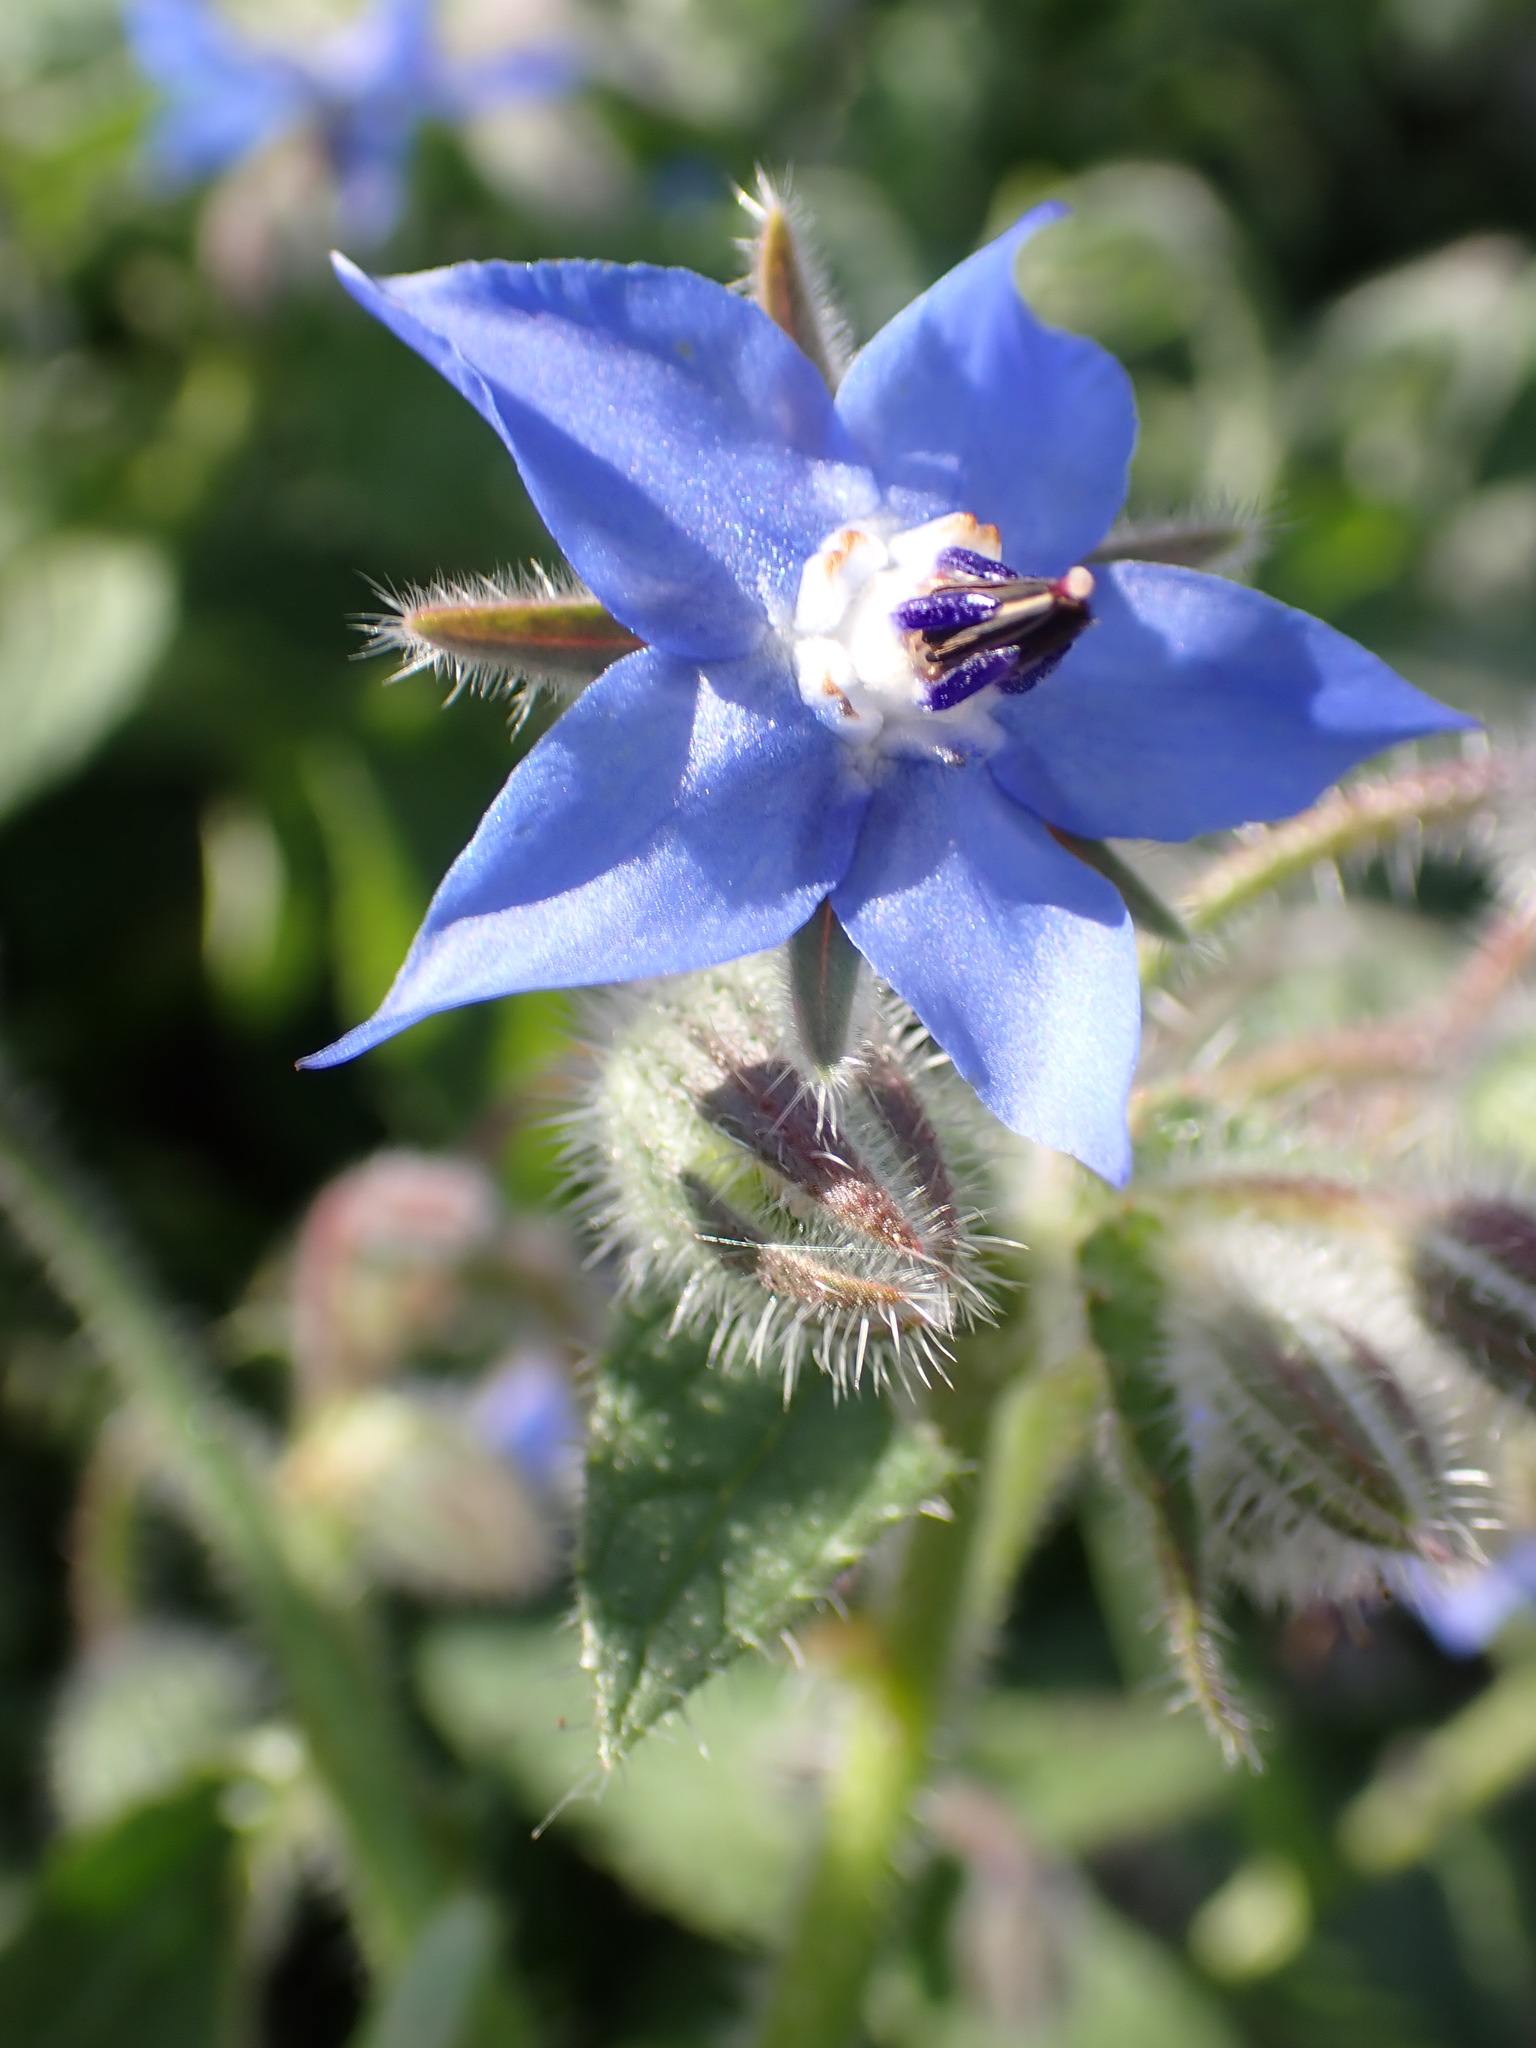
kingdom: Plantae
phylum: Tracheophyta
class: Magnoliopsida
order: Boraginales
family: Boraginaceae
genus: Borago
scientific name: Borago officinalis
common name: Borage
